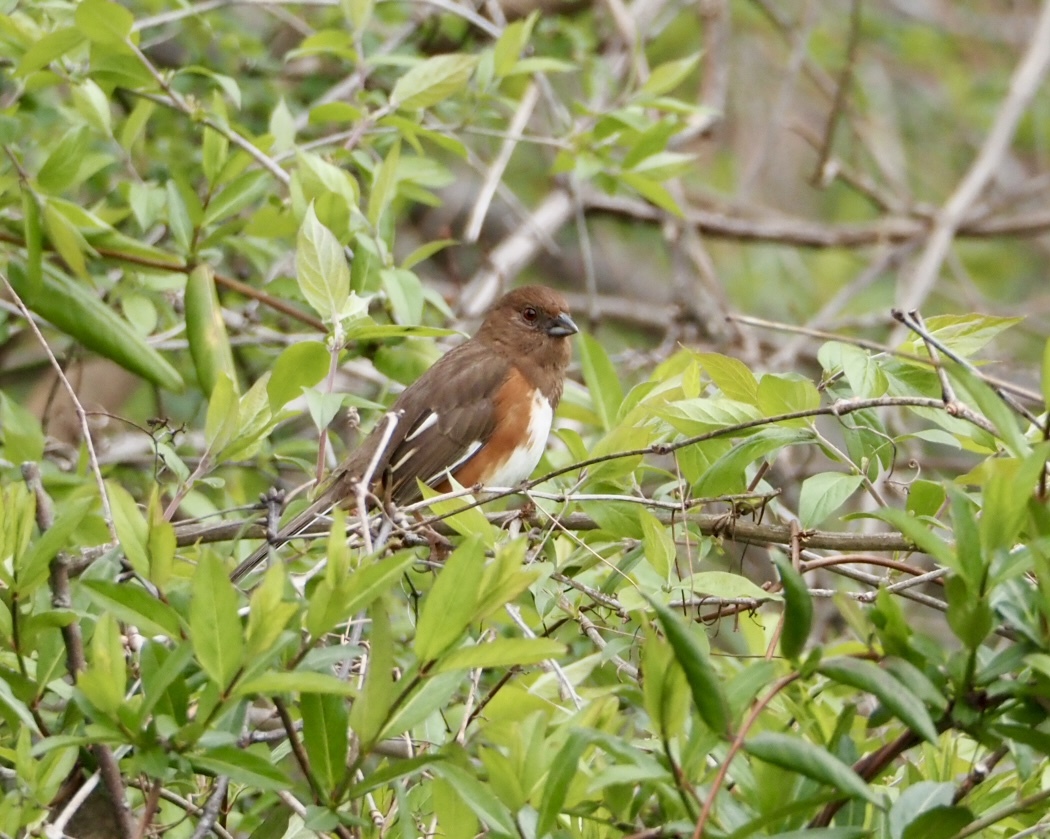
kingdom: Animalia
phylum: Chordata
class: Aves
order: Passeriformes
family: Passerellidae
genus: Pipilo
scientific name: Pipilo erythrophthalmus
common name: Eastern towhee
